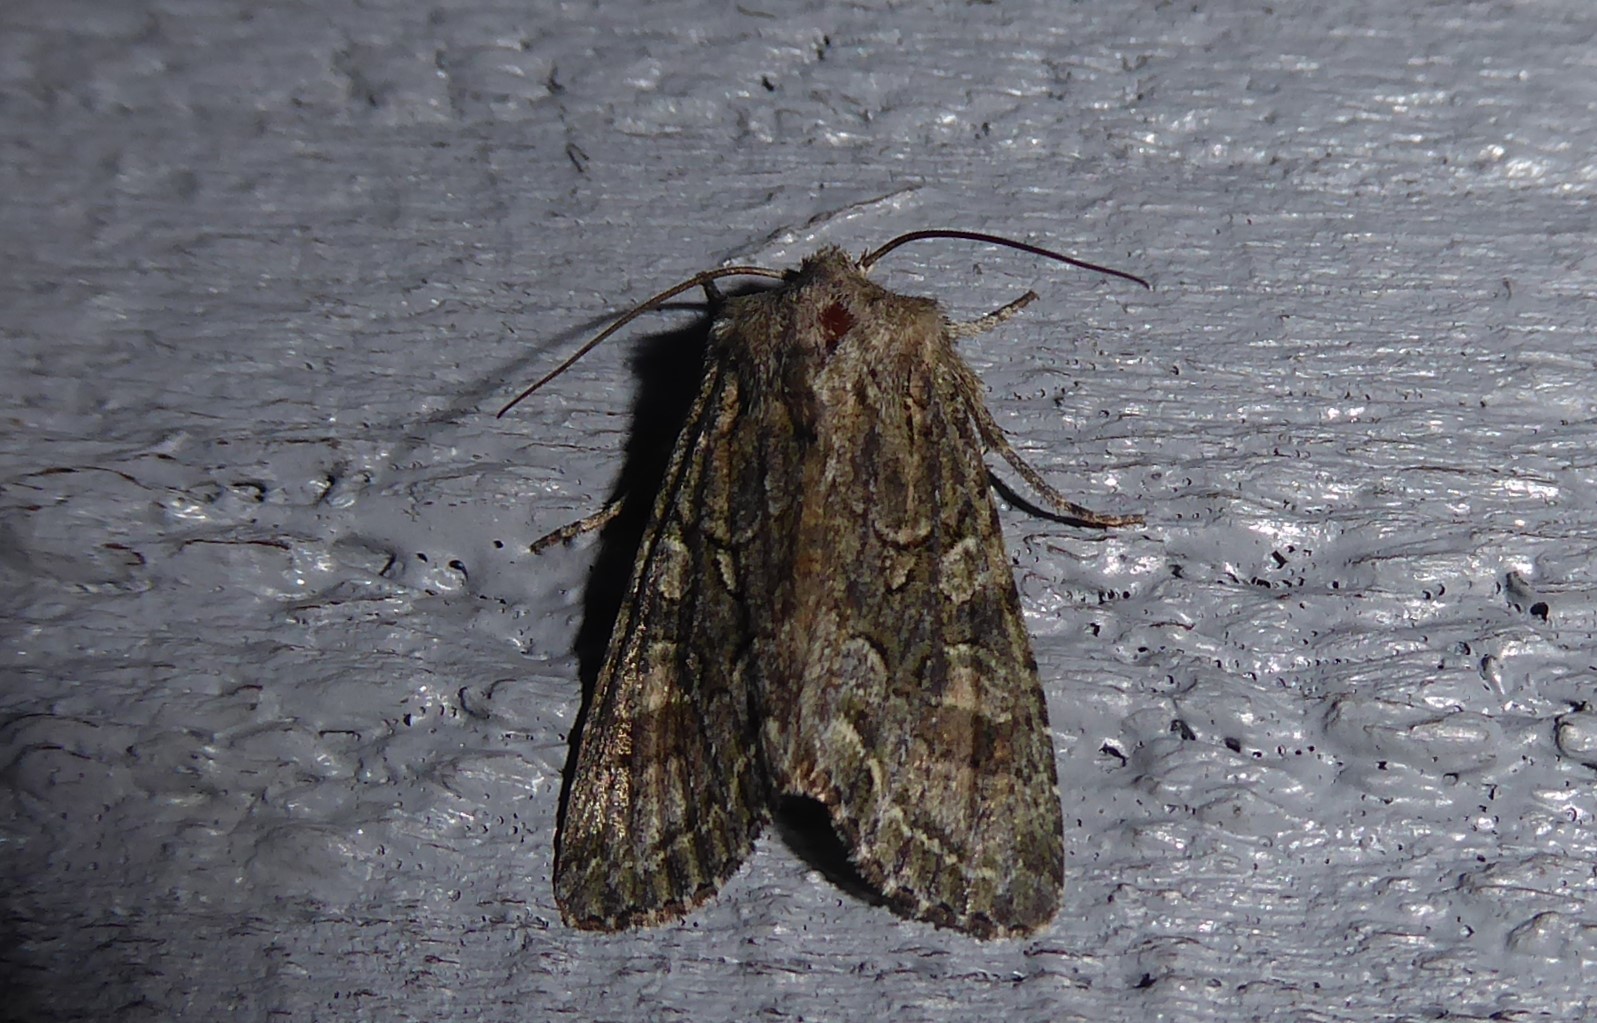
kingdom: Animalia
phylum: Arthropoda
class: Insecta
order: Lepidoptera
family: Noctuidae
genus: Ichneutica
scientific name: Ichneutica mutans
